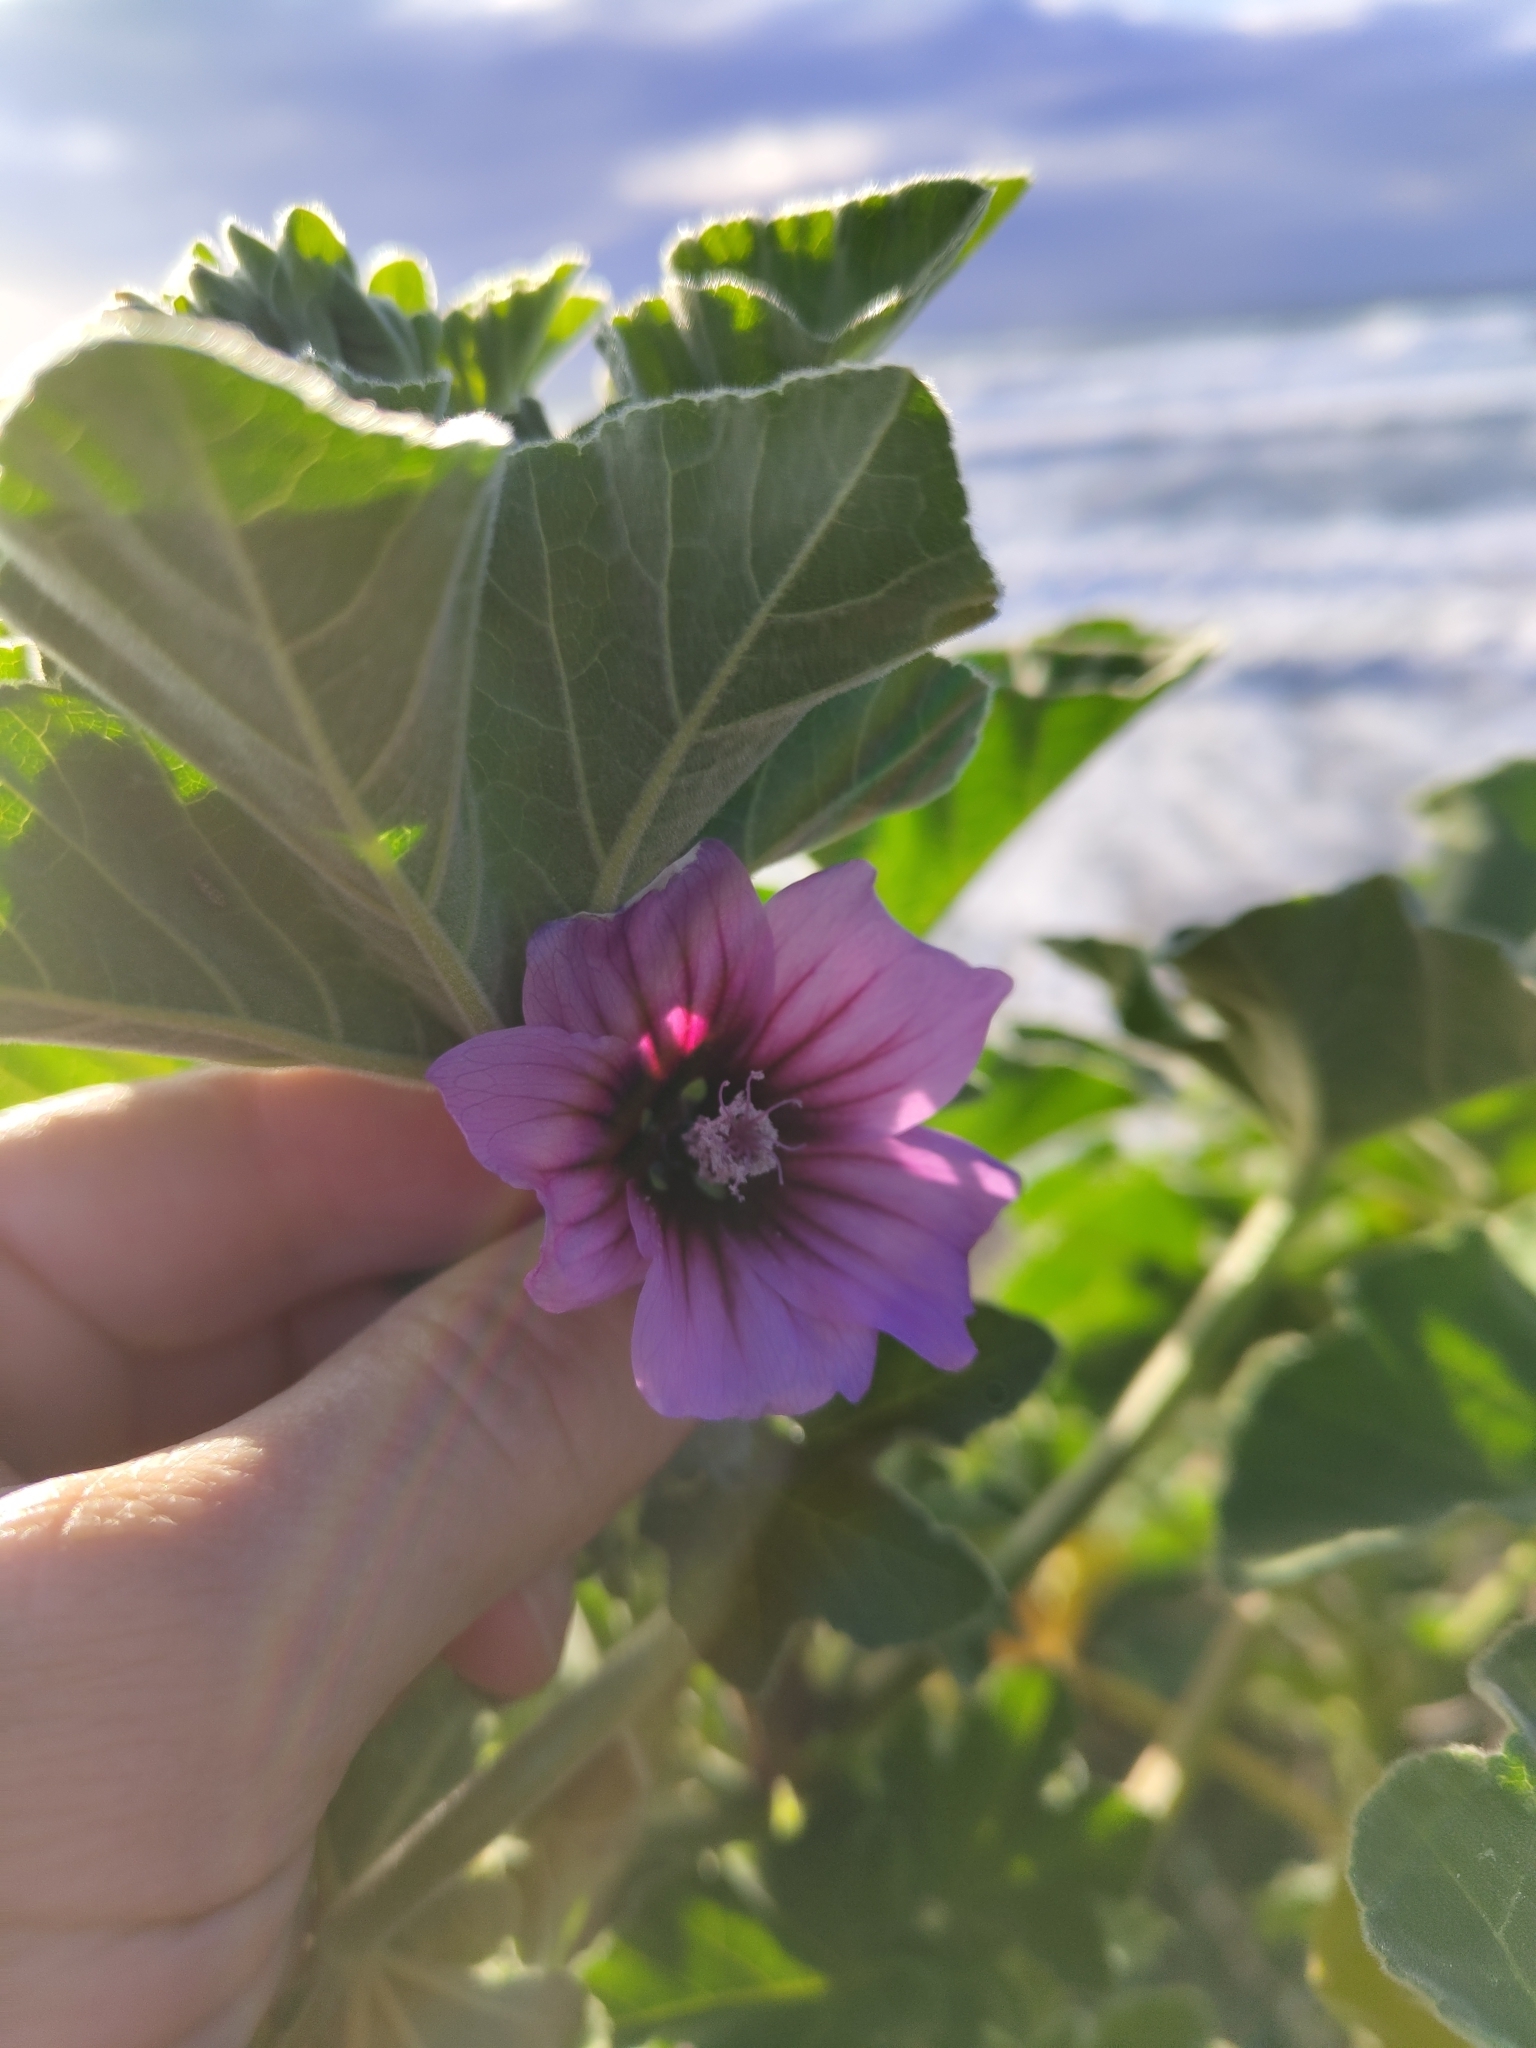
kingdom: Plantae
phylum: Tracheophyta
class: Magnoliopsida
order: Malvales
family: Malvaceae
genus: Malva
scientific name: Malva arborea
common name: Tree mallow
